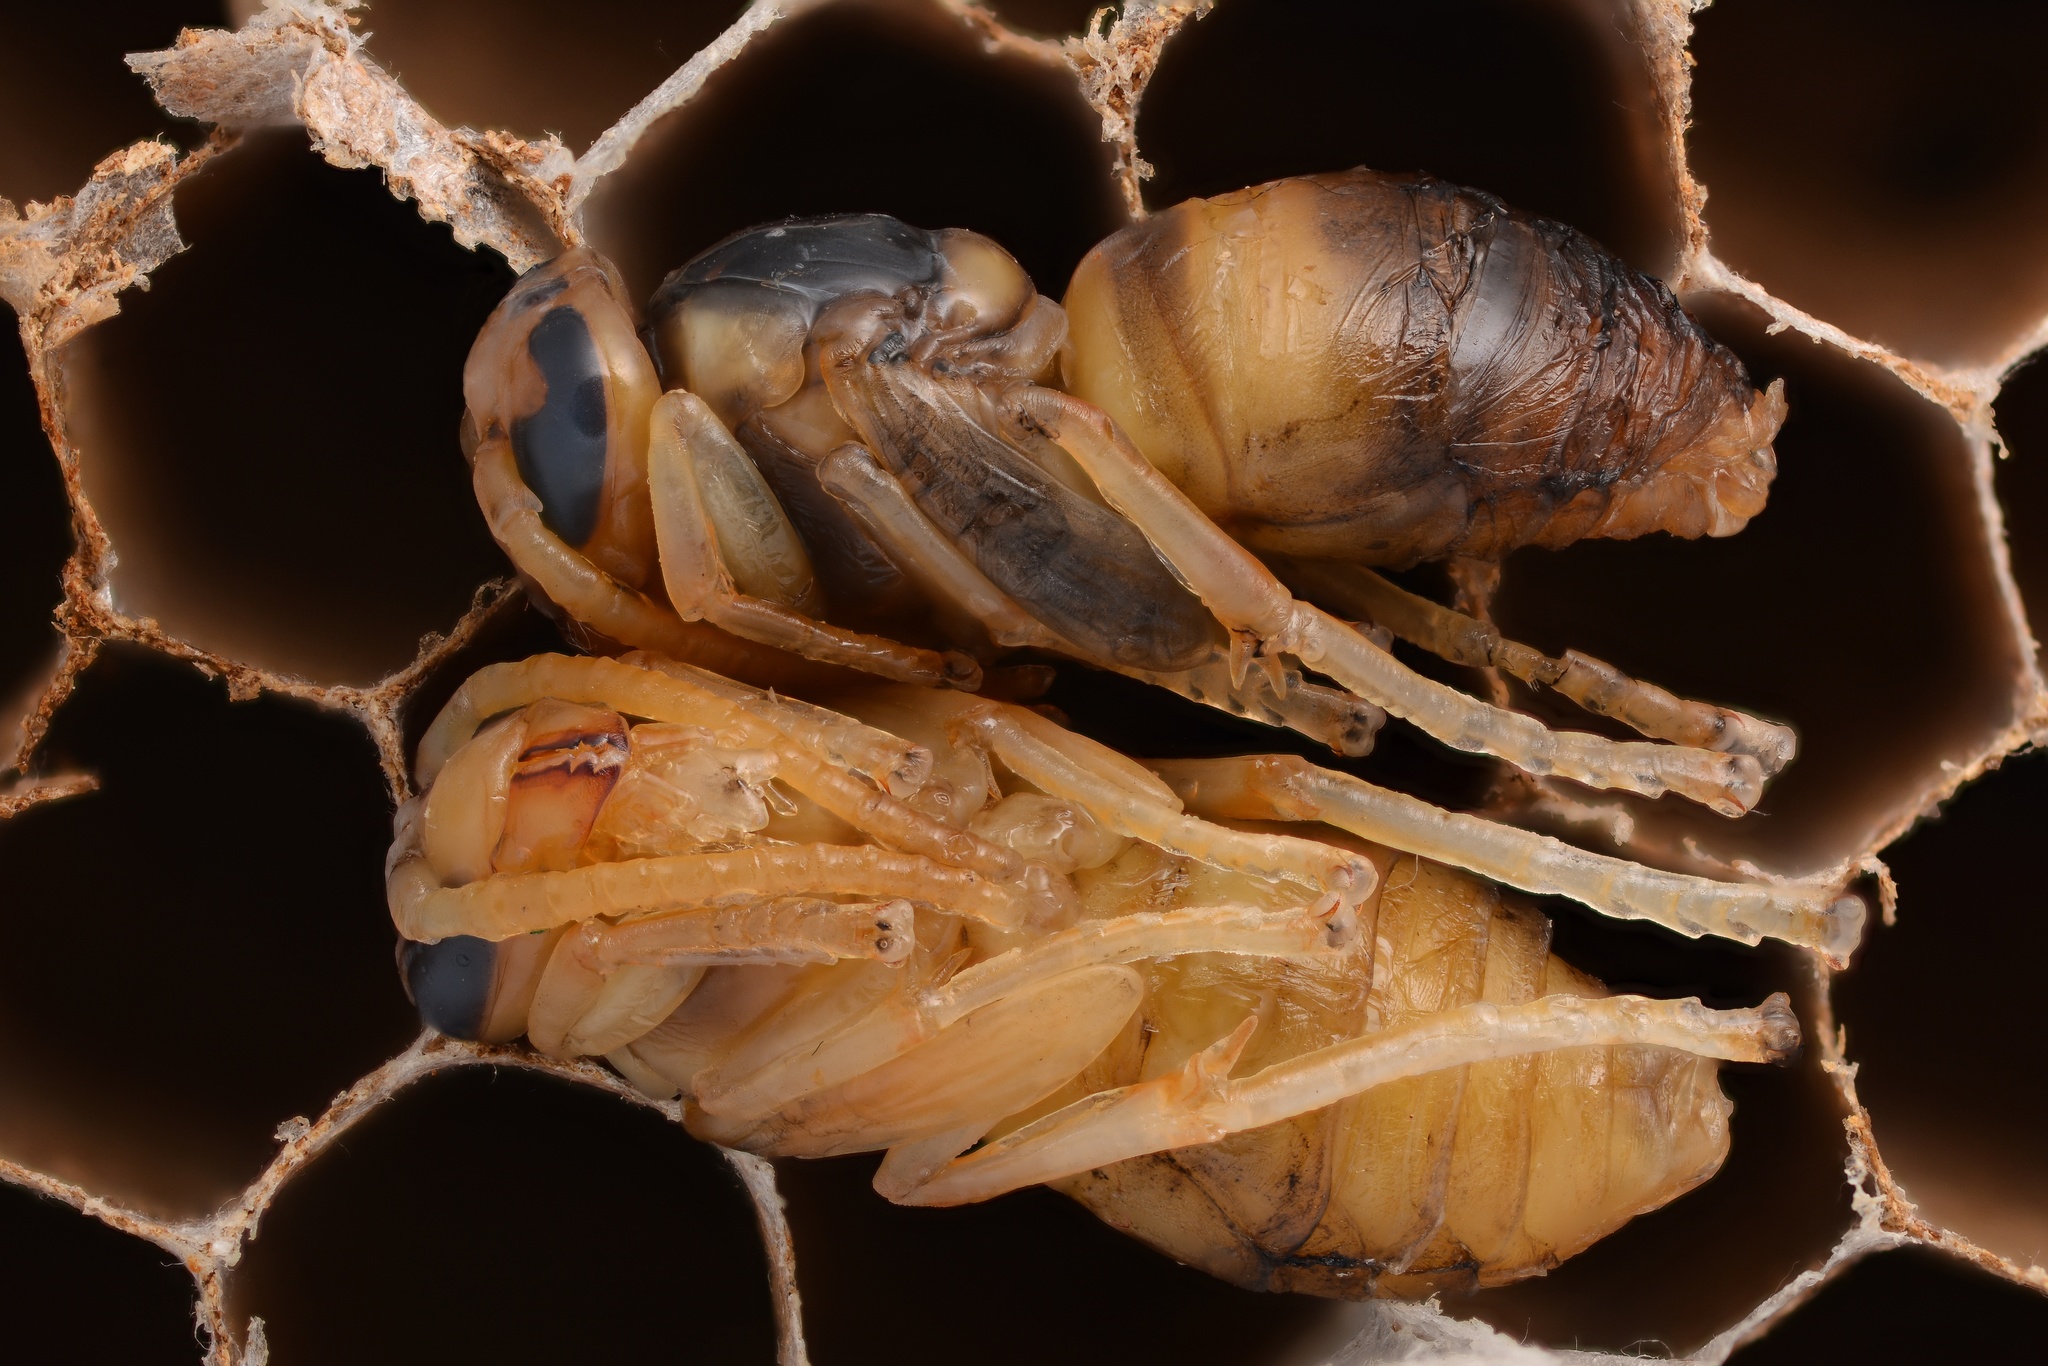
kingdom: Animalia
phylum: Arthropoda
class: Insecta
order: Hymenoptera
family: Vespidae
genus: Vespa
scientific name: Vespa velutina
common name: Asian hornet
